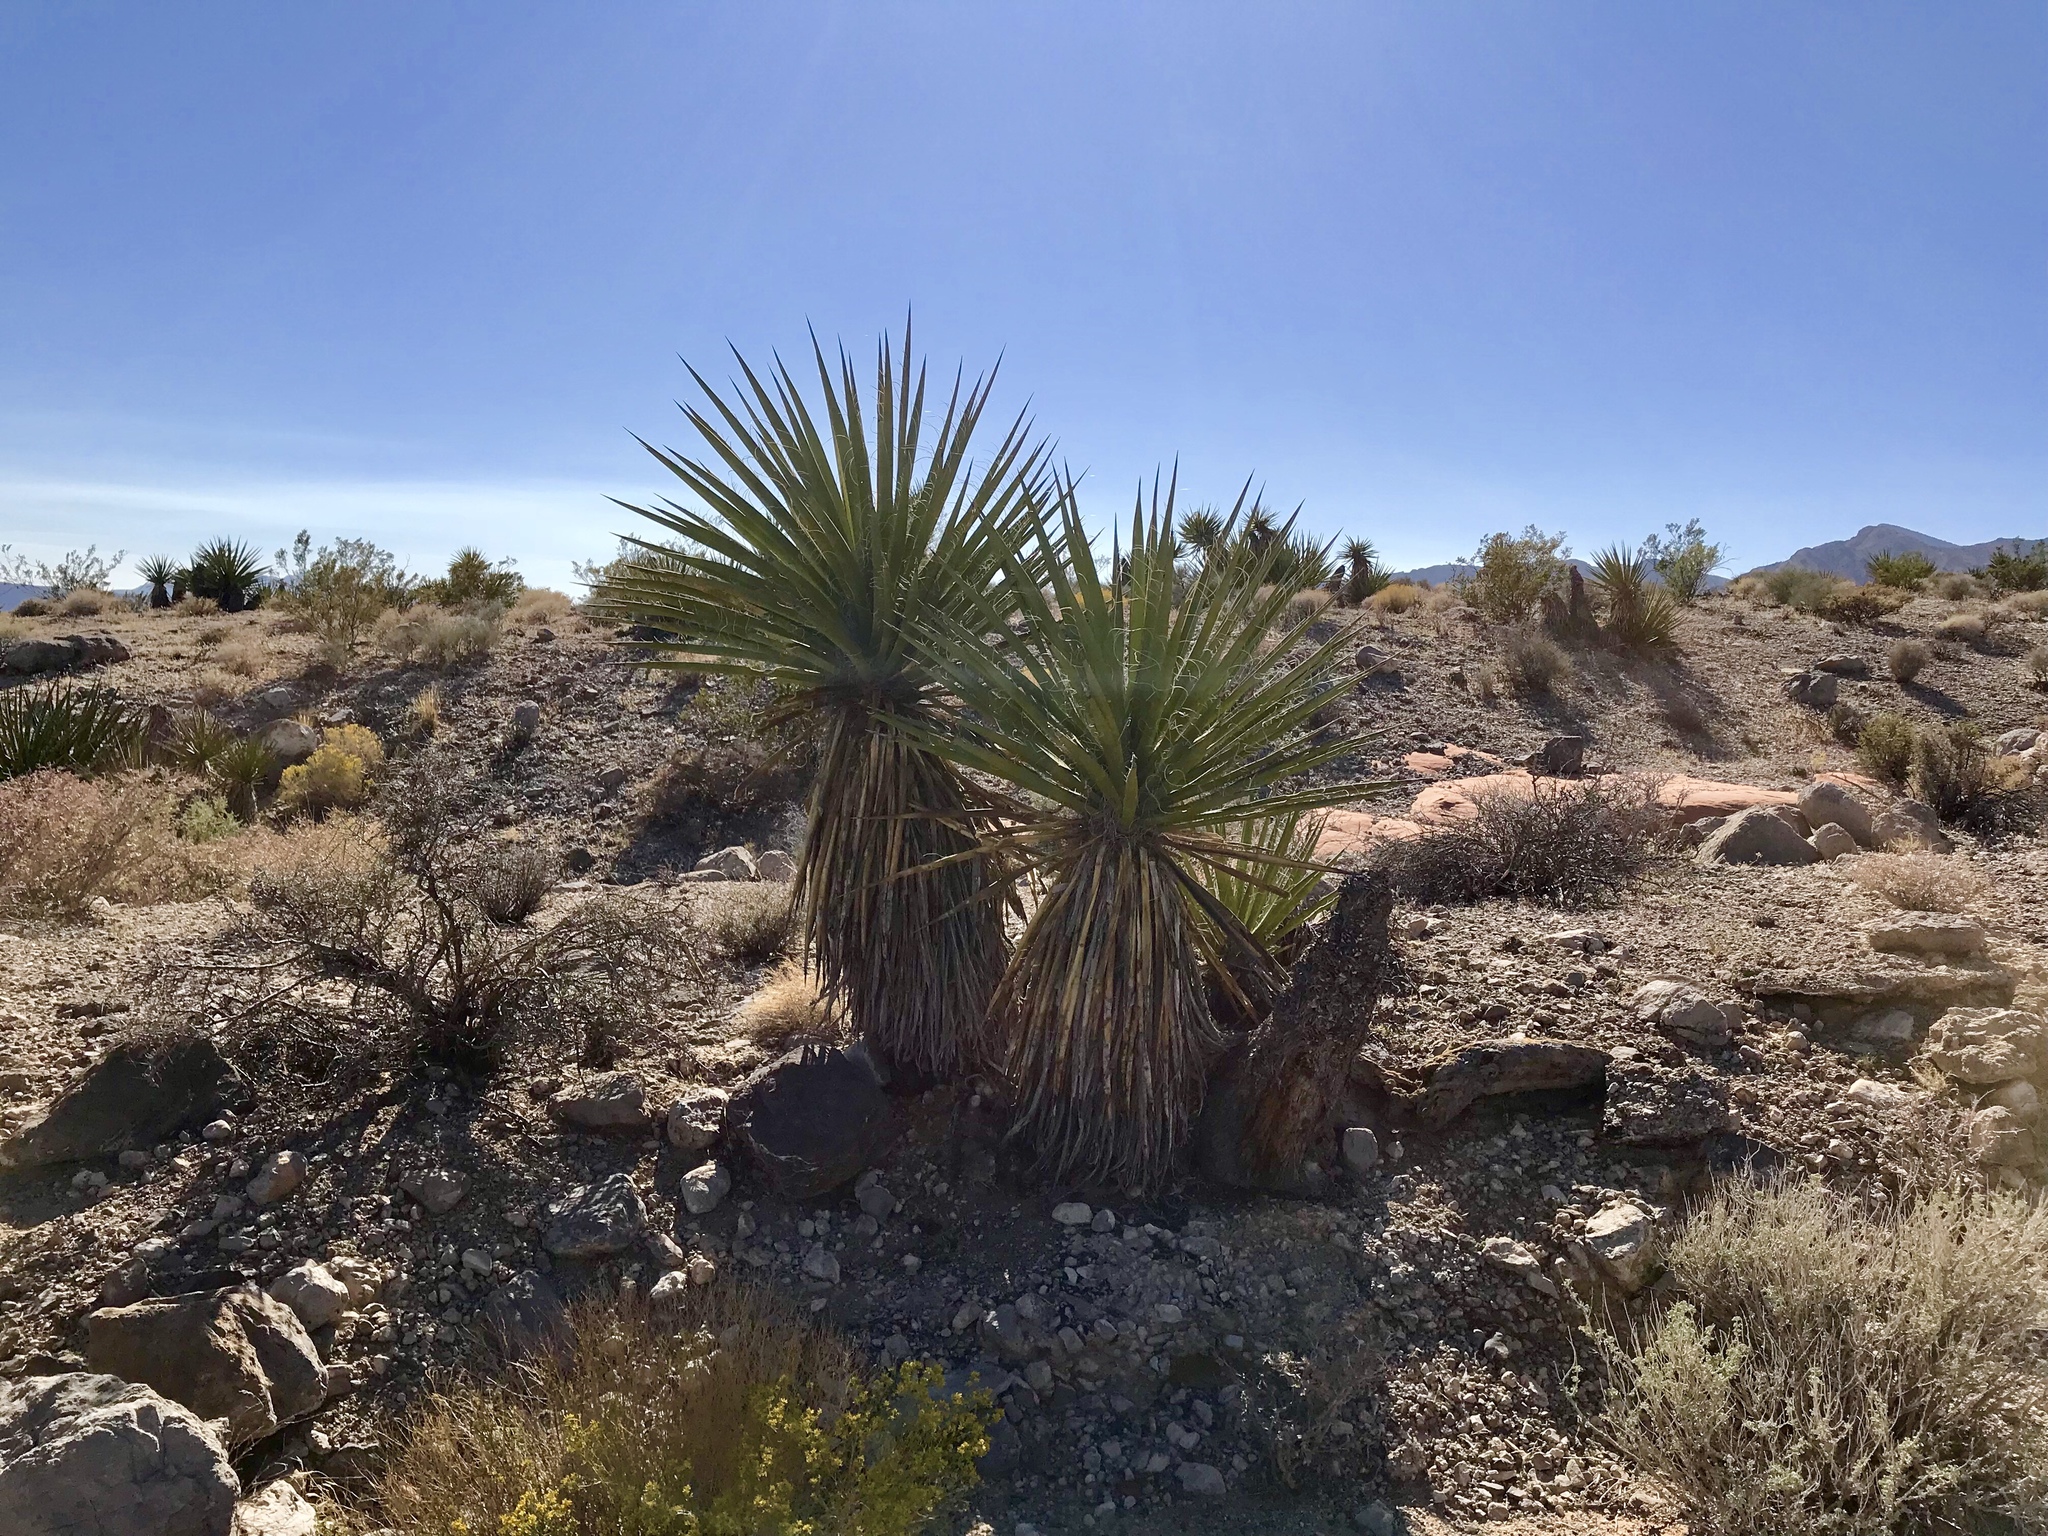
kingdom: Plantae
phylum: Tracheophyta
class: Liliopsida
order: Asparagales
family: Asparagaceae
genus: Yucca
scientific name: Yucca schidigera
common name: Mojave yucca
